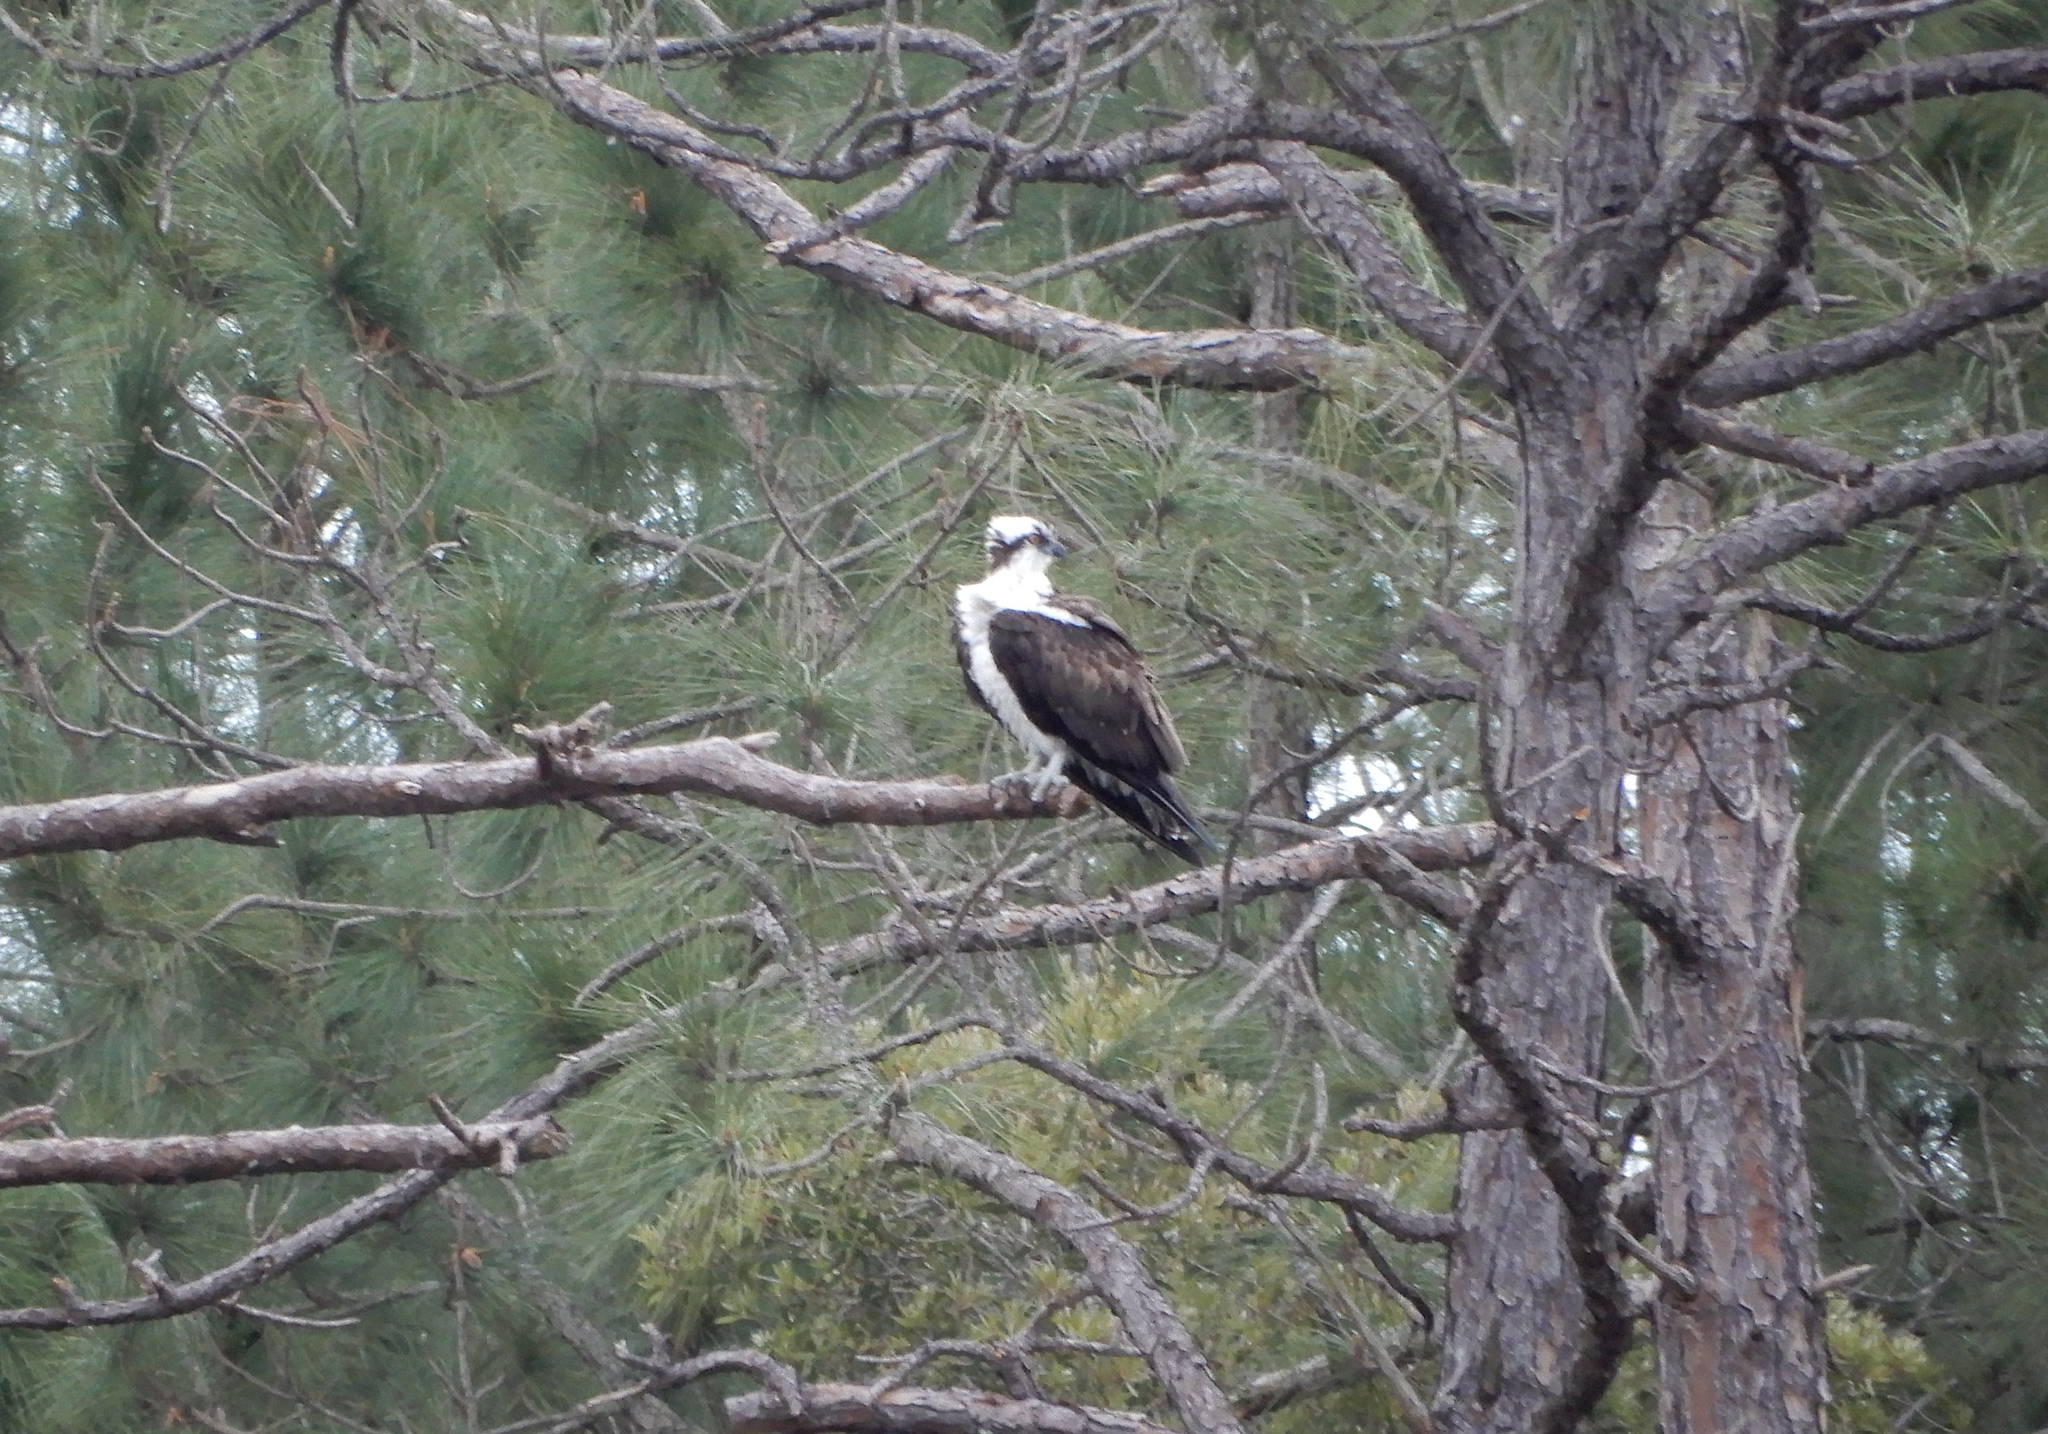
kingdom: Animalia
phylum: Chordata
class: Aves
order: Accipitriformes
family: Pandionidae
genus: Pandion
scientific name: Pandion haliaetus
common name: Osprey
